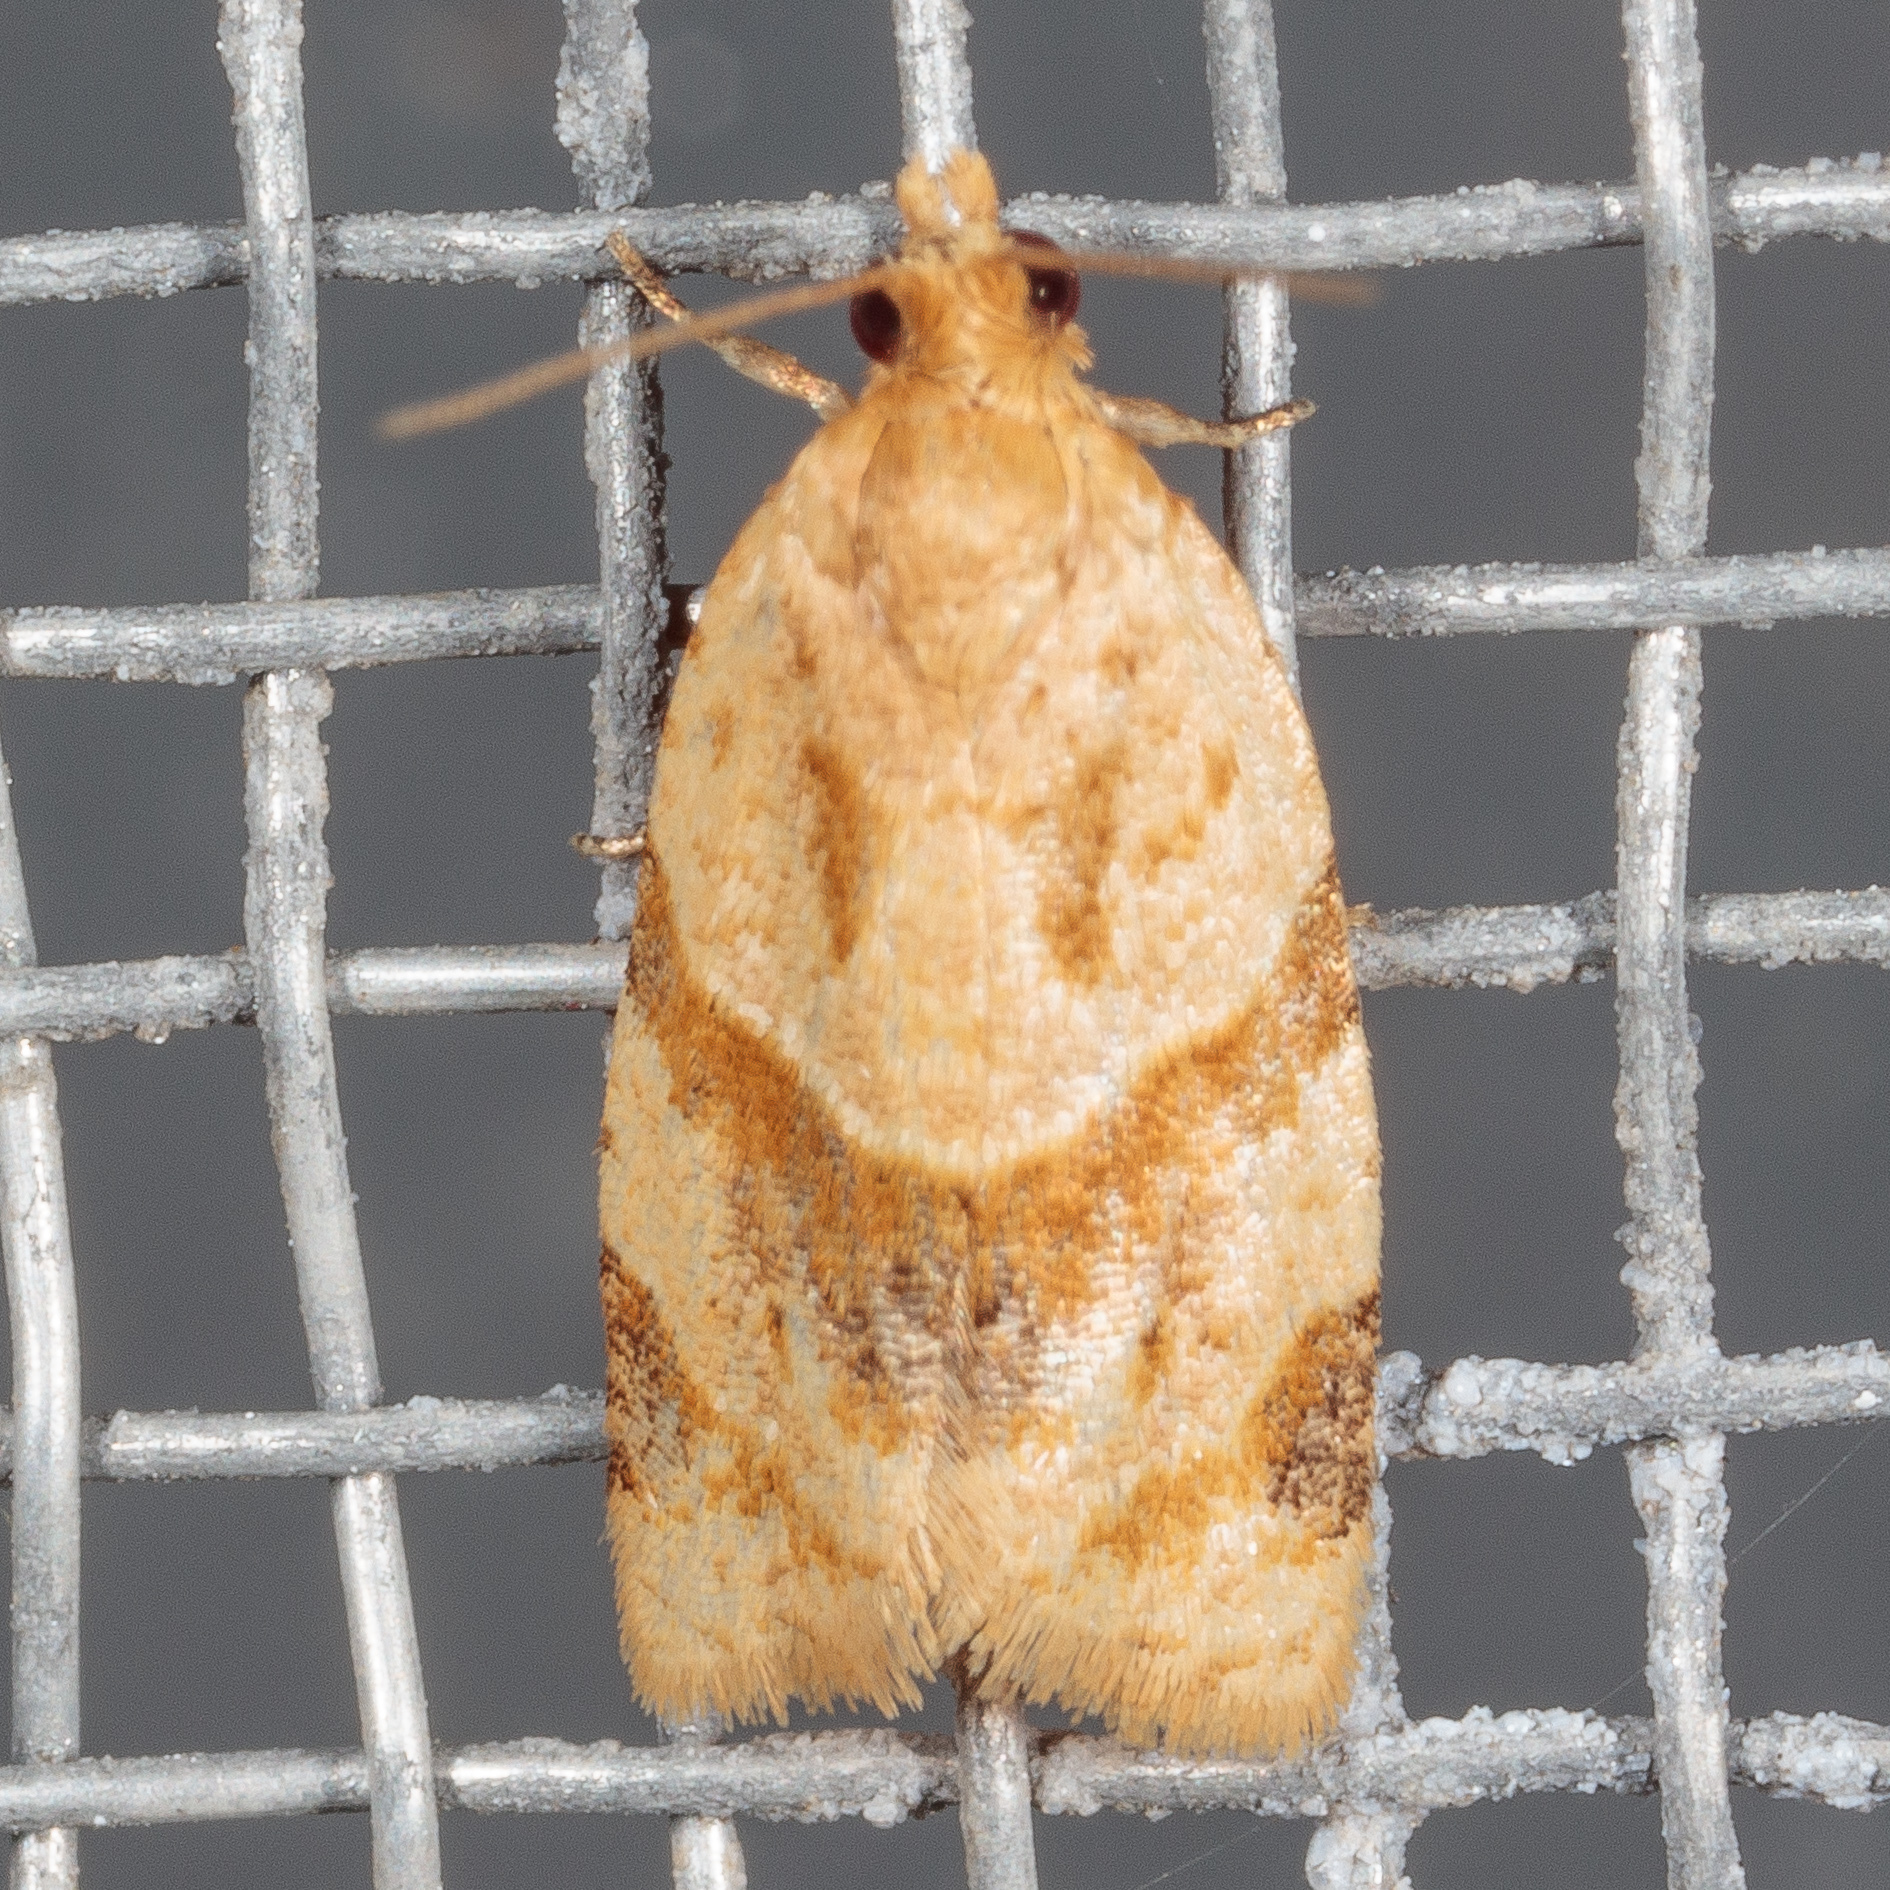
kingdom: Animalia
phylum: Arthropoda
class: Insecta
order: Lepidoptera
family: Tortricidae
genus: Clepsis
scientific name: Clepsis peritana
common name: Garden tortrix
